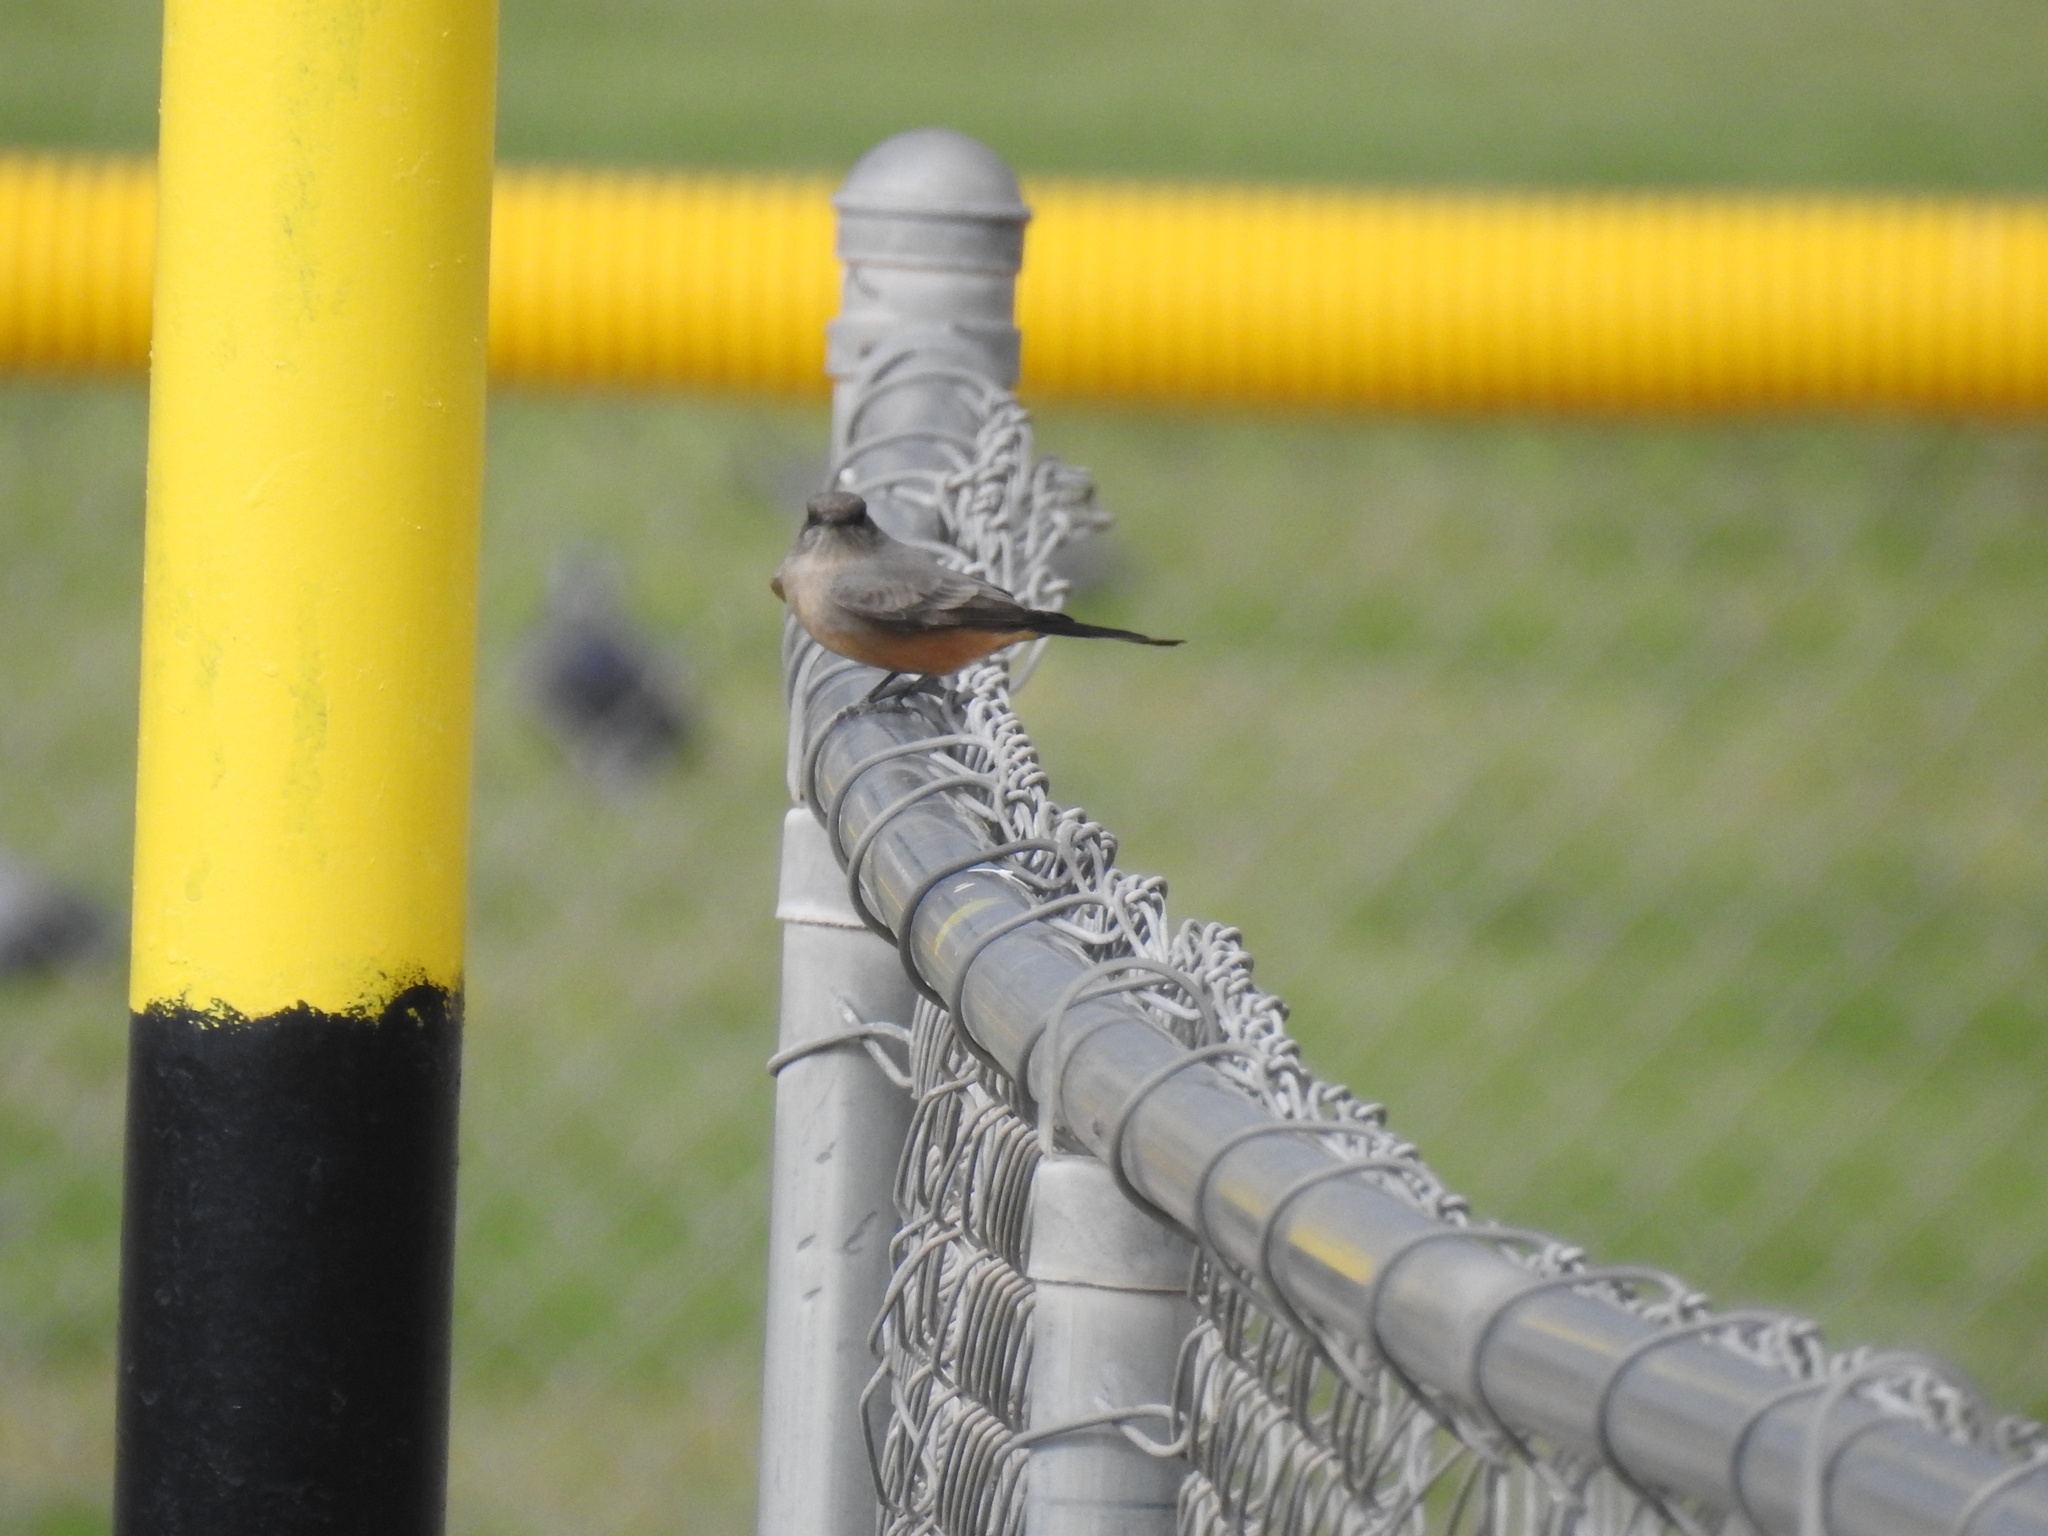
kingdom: Animalia
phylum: Chordata
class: Aves
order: Passeriformes
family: Tyrannidae
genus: Sayornis
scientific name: Sayornis saya
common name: Say's phoebe
